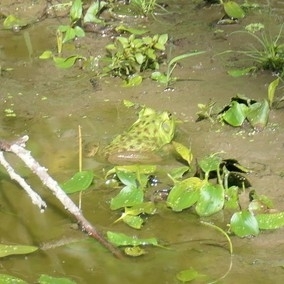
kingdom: Animalia
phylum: Chordata
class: Amphibia
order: Anura
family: Ranidae
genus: Lithobates
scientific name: Lithobates catesbeianus
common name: American bullfrog
